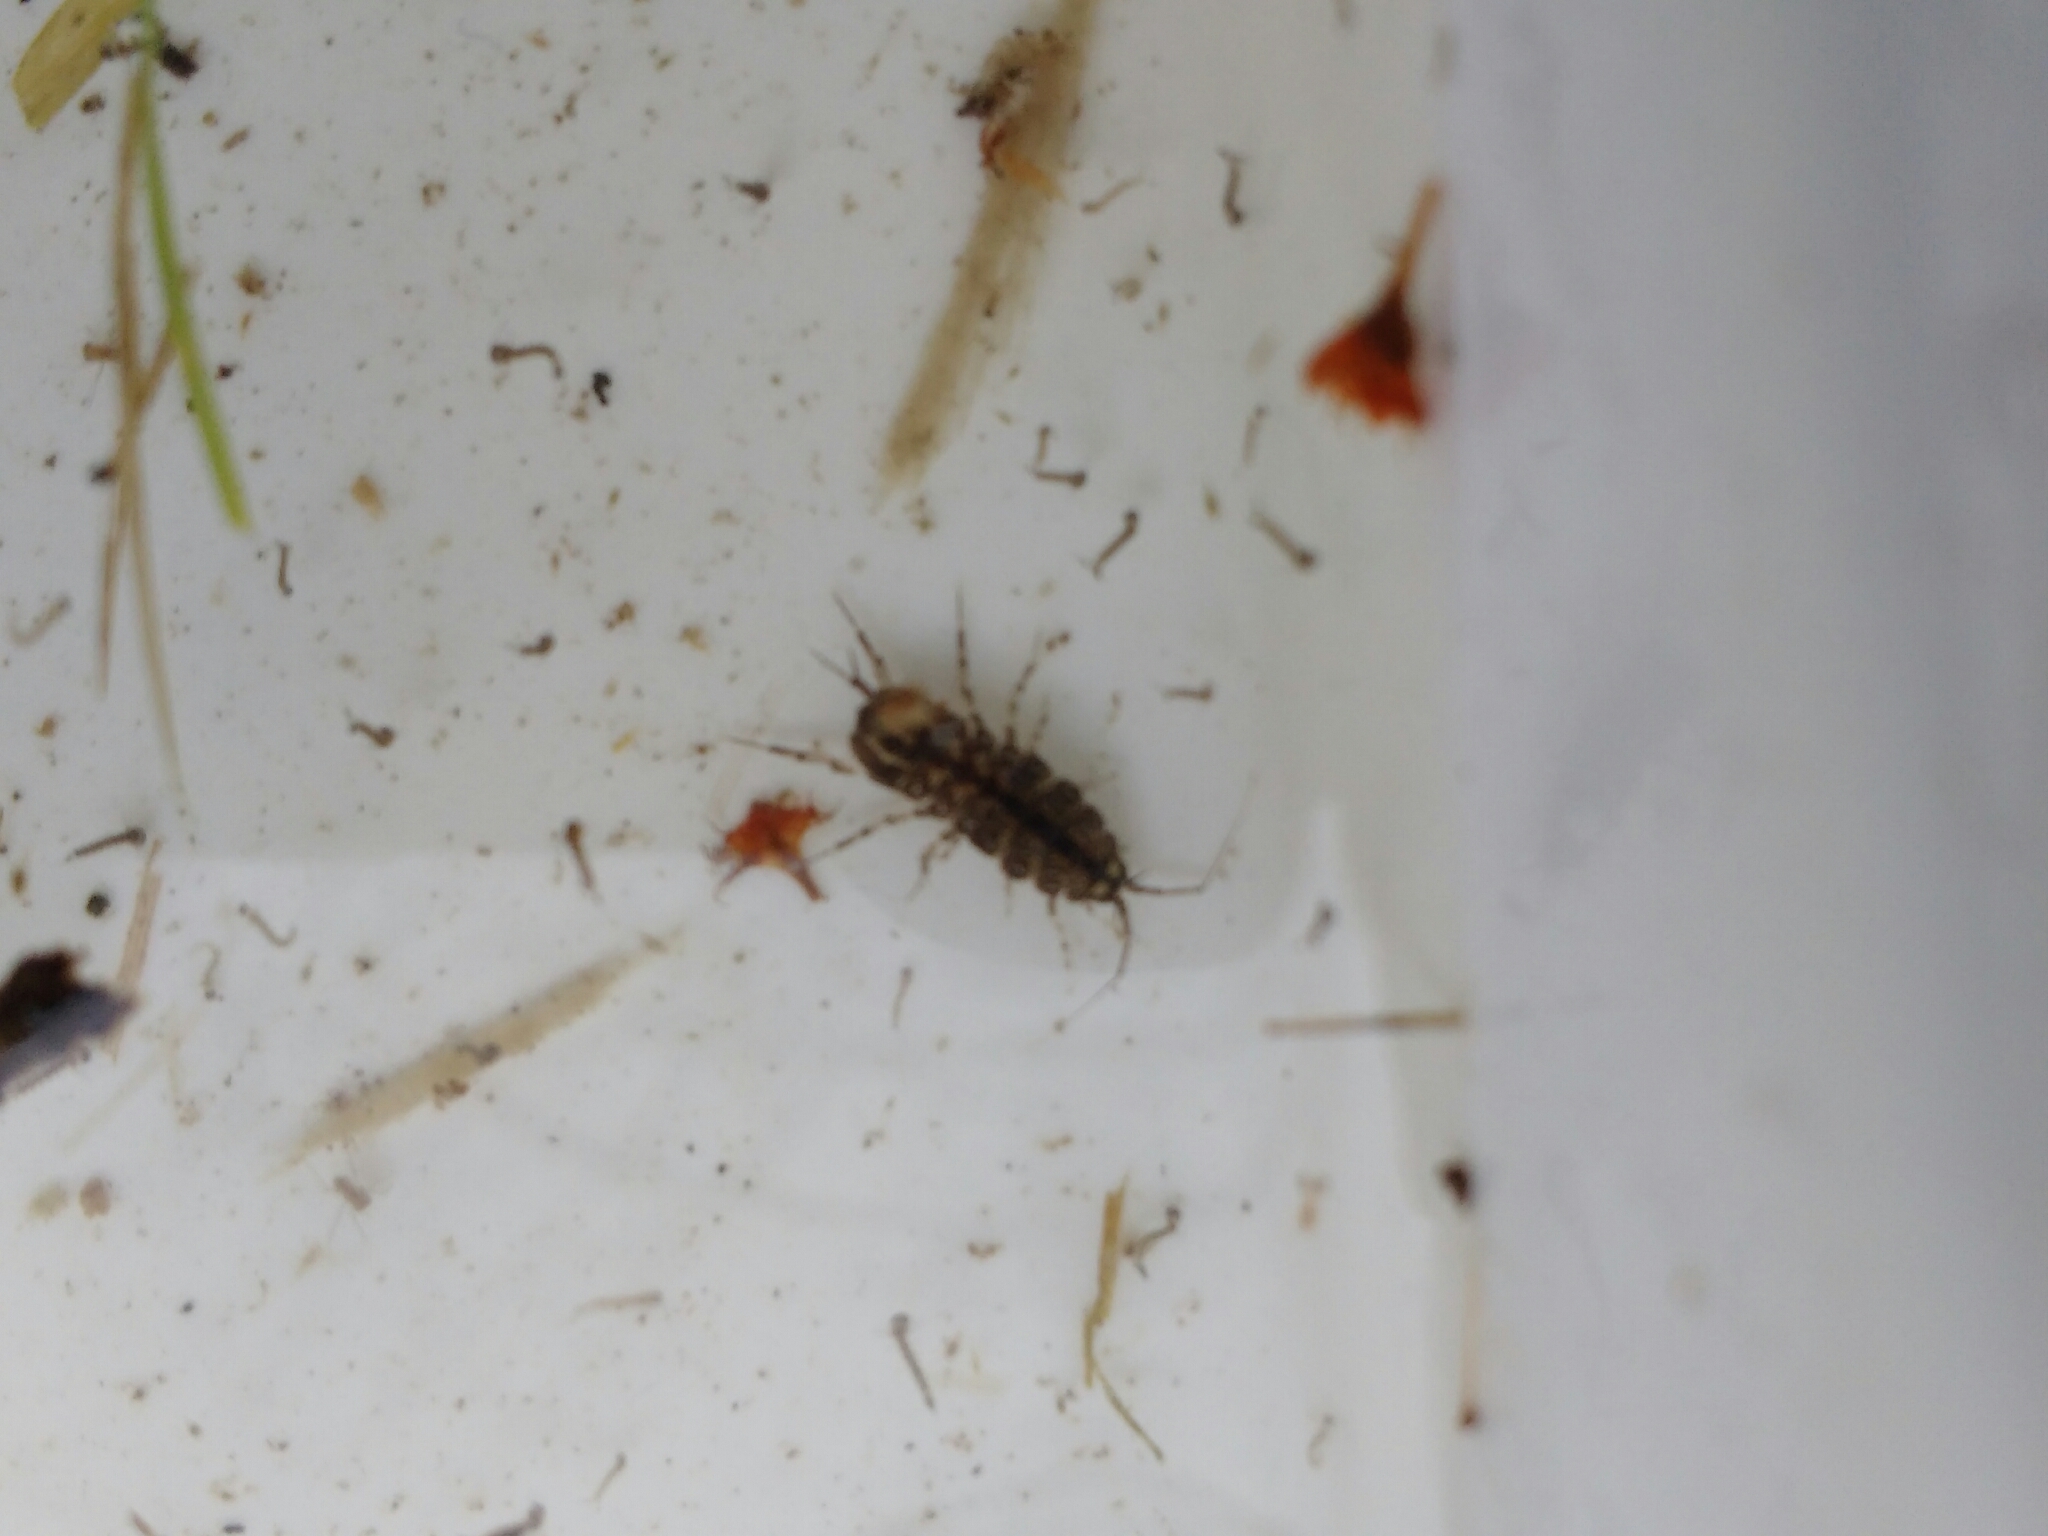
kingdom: Animalia
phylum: Arthropoda
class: Malacostraca
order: Isopoda
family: Asellidae
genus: Asellus
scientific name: Asellus aquaticus
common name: Water hog lice/slaters
